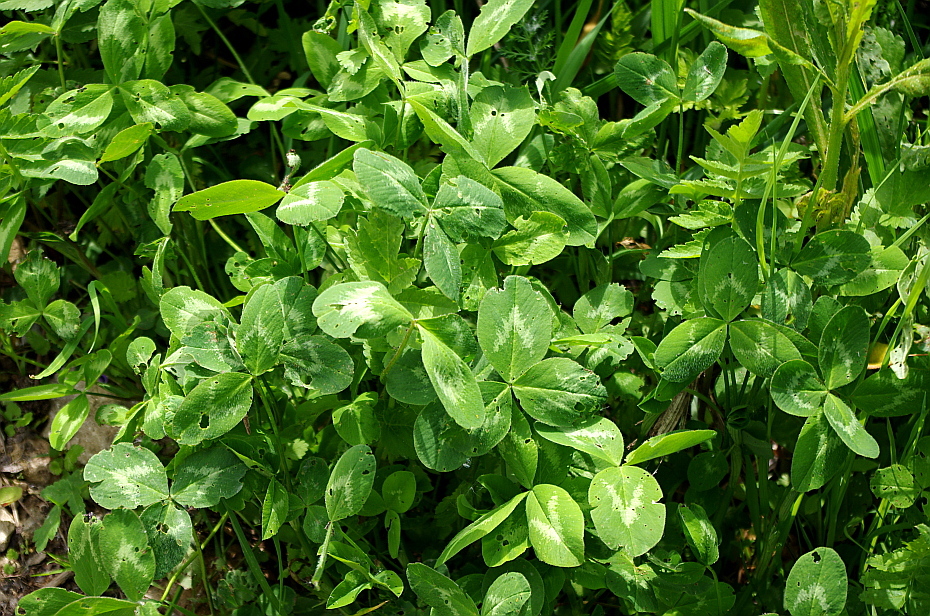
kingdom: Plantae
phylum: Tracheophyta
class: Magnoliopsida
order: Fabales
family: Fabaceae
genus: Trifolium
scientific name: Trifolium pratense
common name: Red clover
